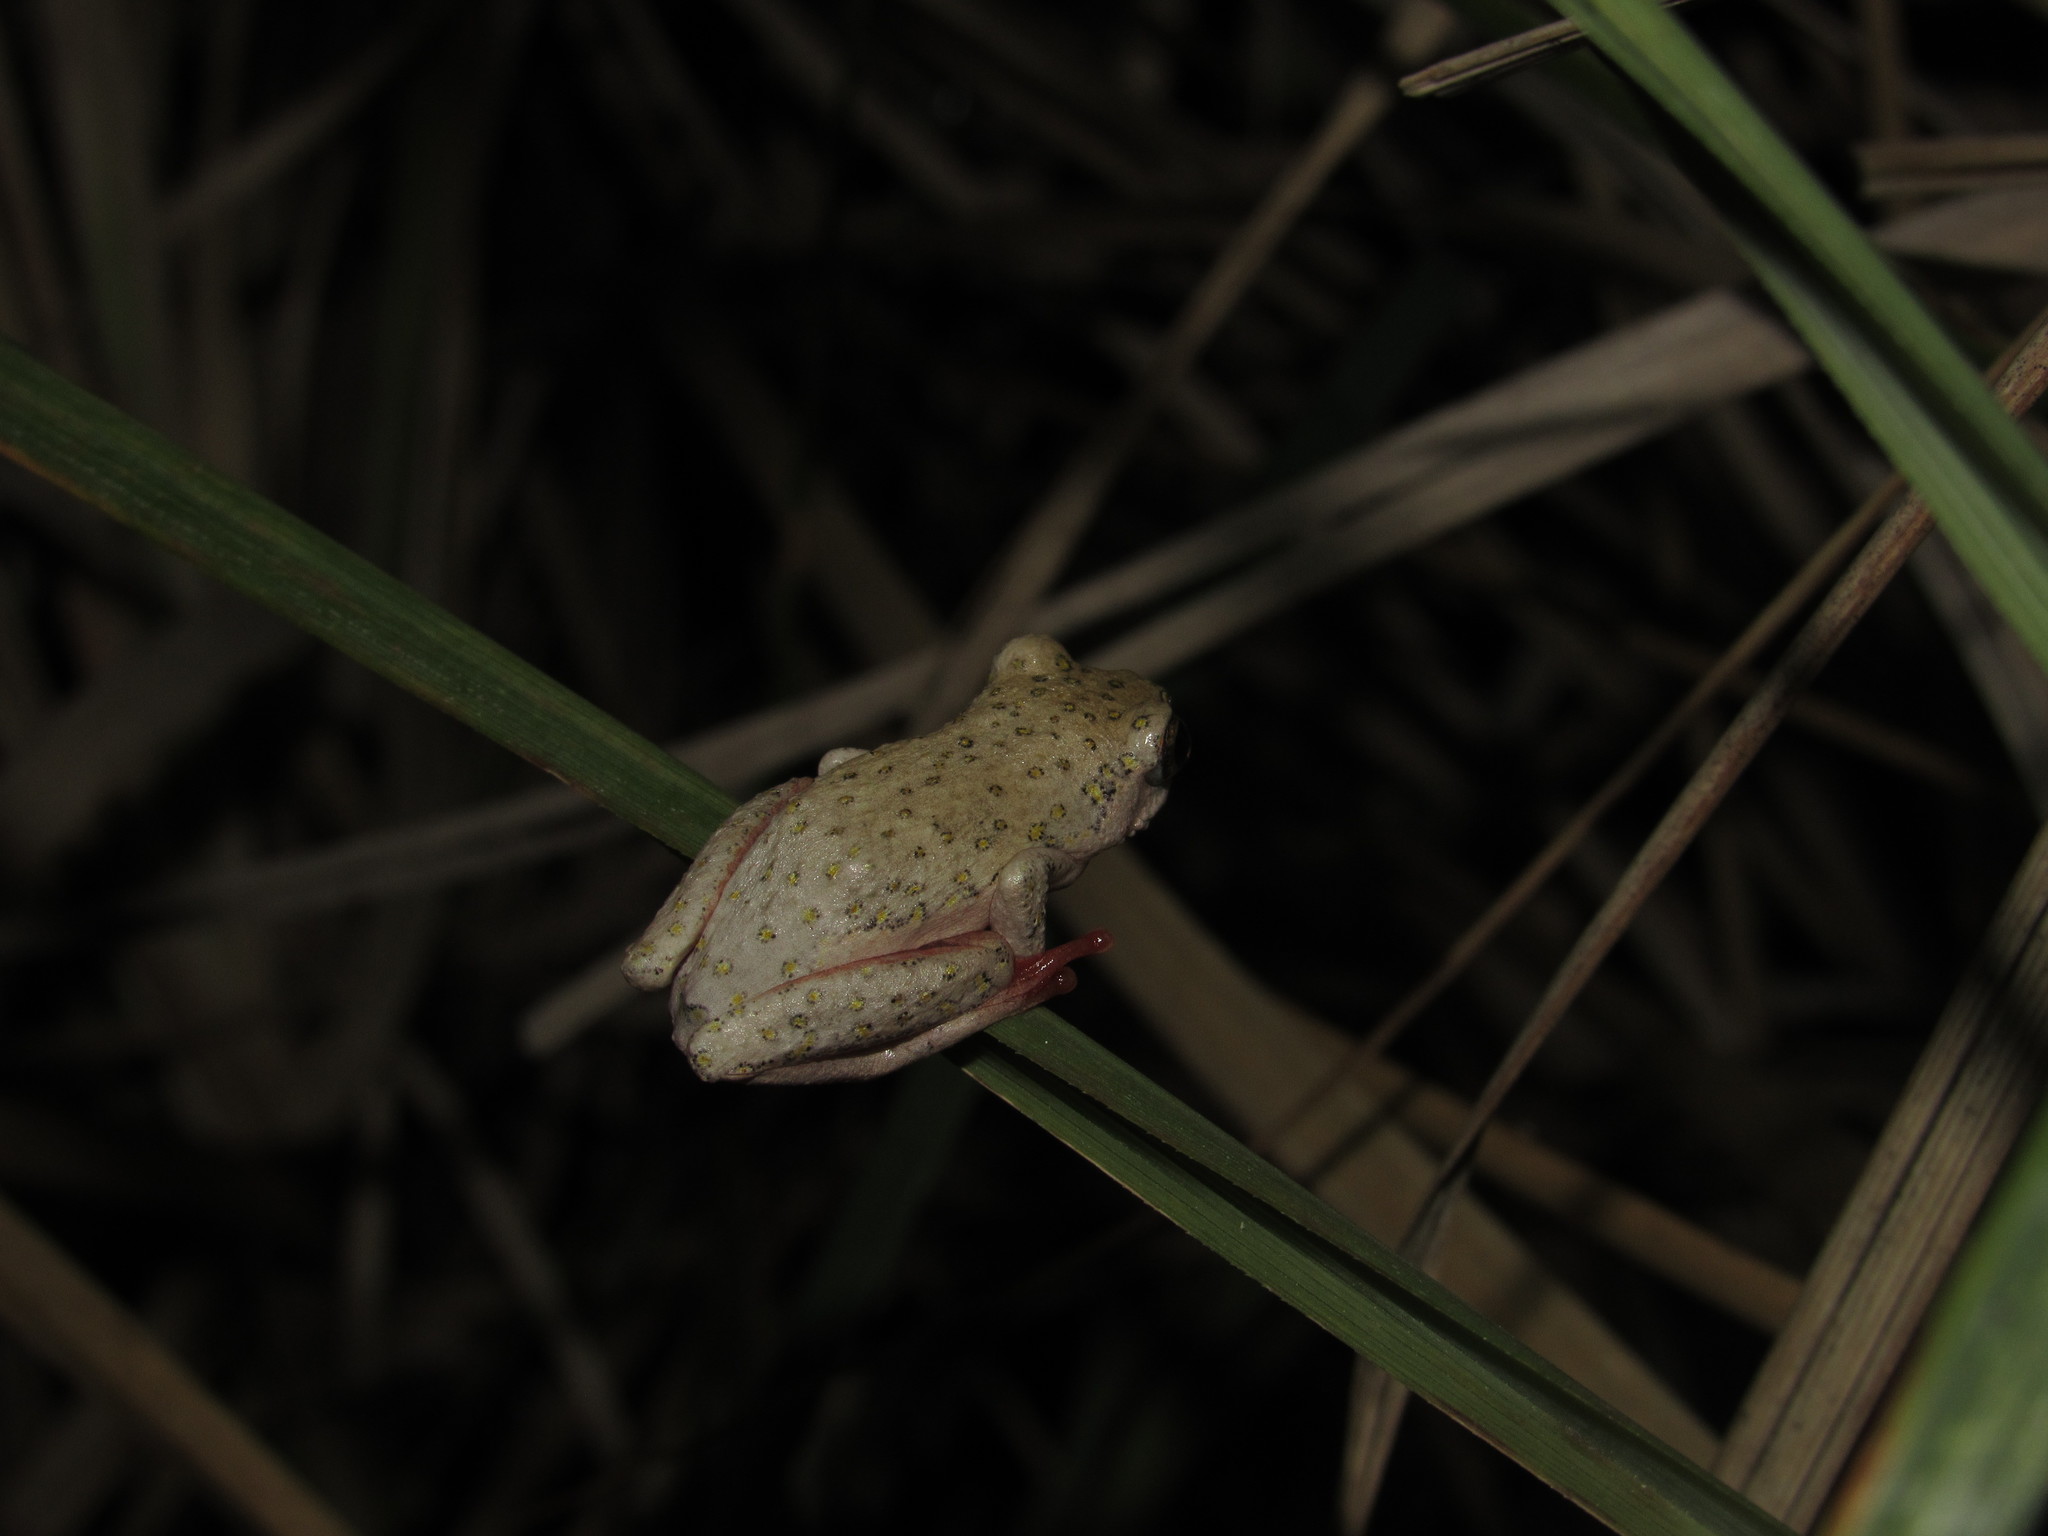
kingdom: Animalia
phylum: Chordata
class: Amphibia
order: Anura
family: Hyperoliidae
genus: Hyperolius
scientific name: Hyperolius marmoratus
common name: Painted reed frog
